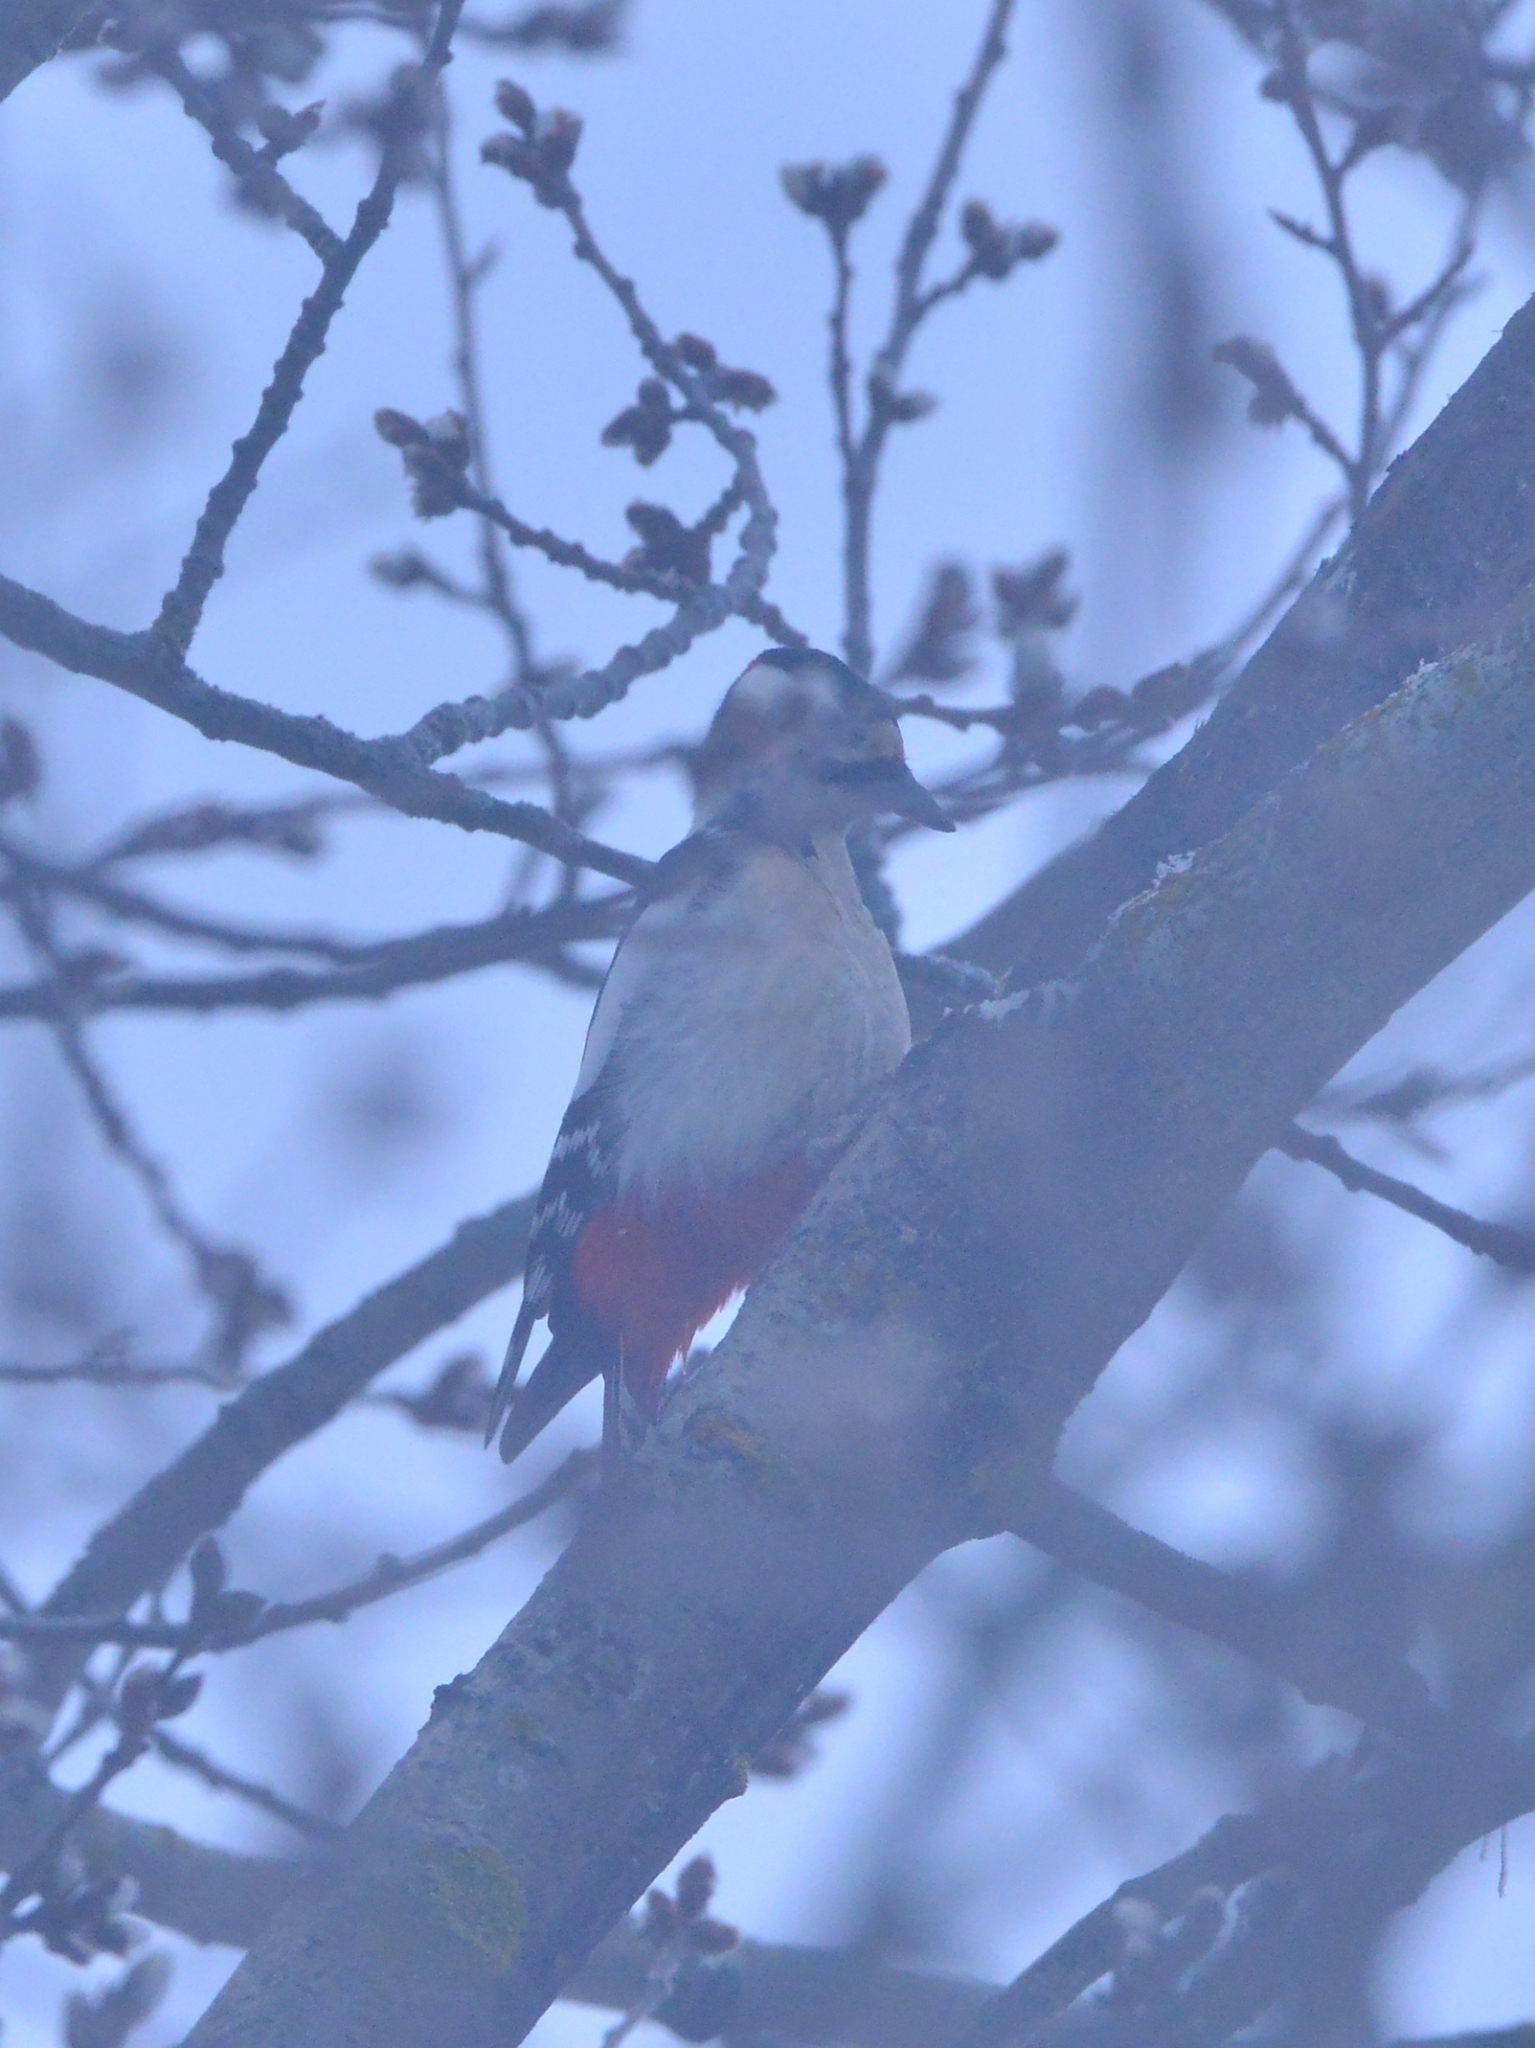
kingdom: Animalia
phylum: Chordata
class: Aves
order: Piciformes
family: Picidae
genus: Dendrocopos
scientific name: Dendrocopos major
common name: Great spotted woodpecker
